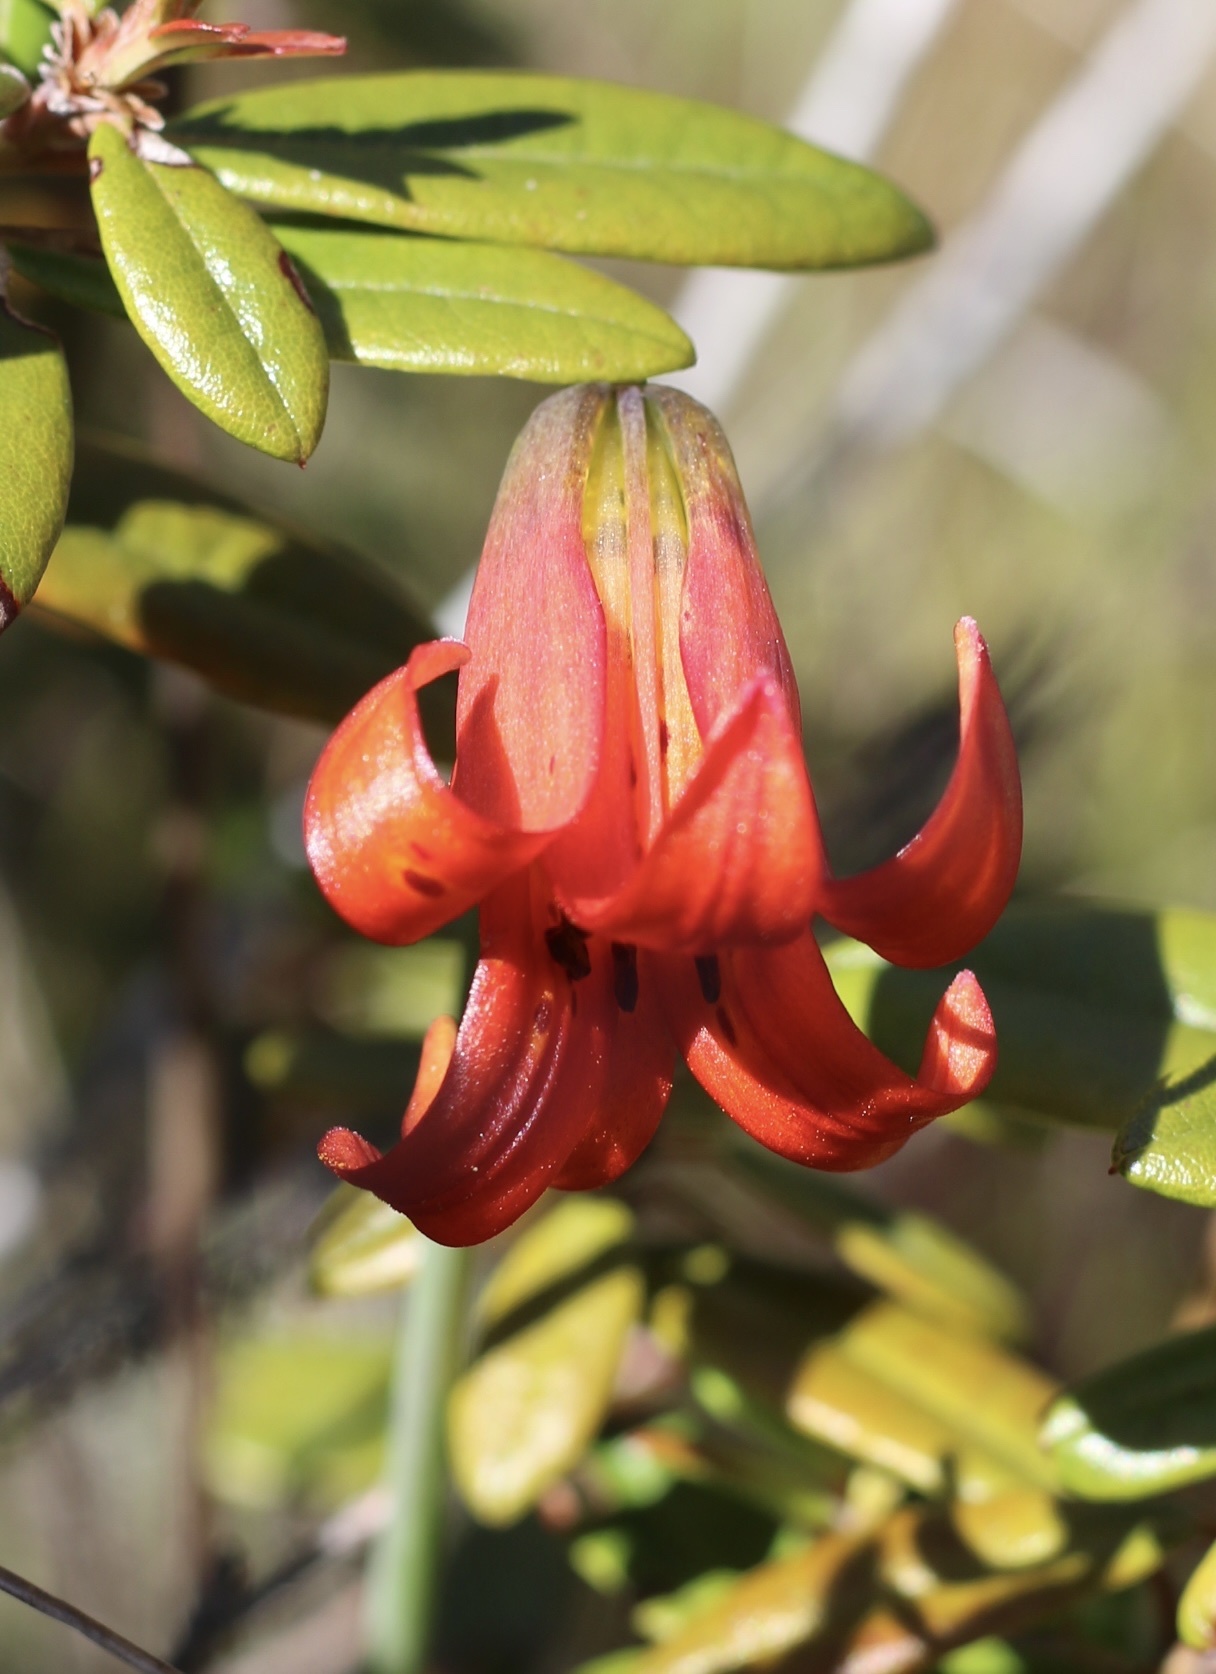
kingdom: Plantae
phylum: Tracheophyta
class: Liliopsida
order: Liliales
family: Liliaceae
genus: Lilium
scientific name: Lilium maritimum
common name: Coastal lily
